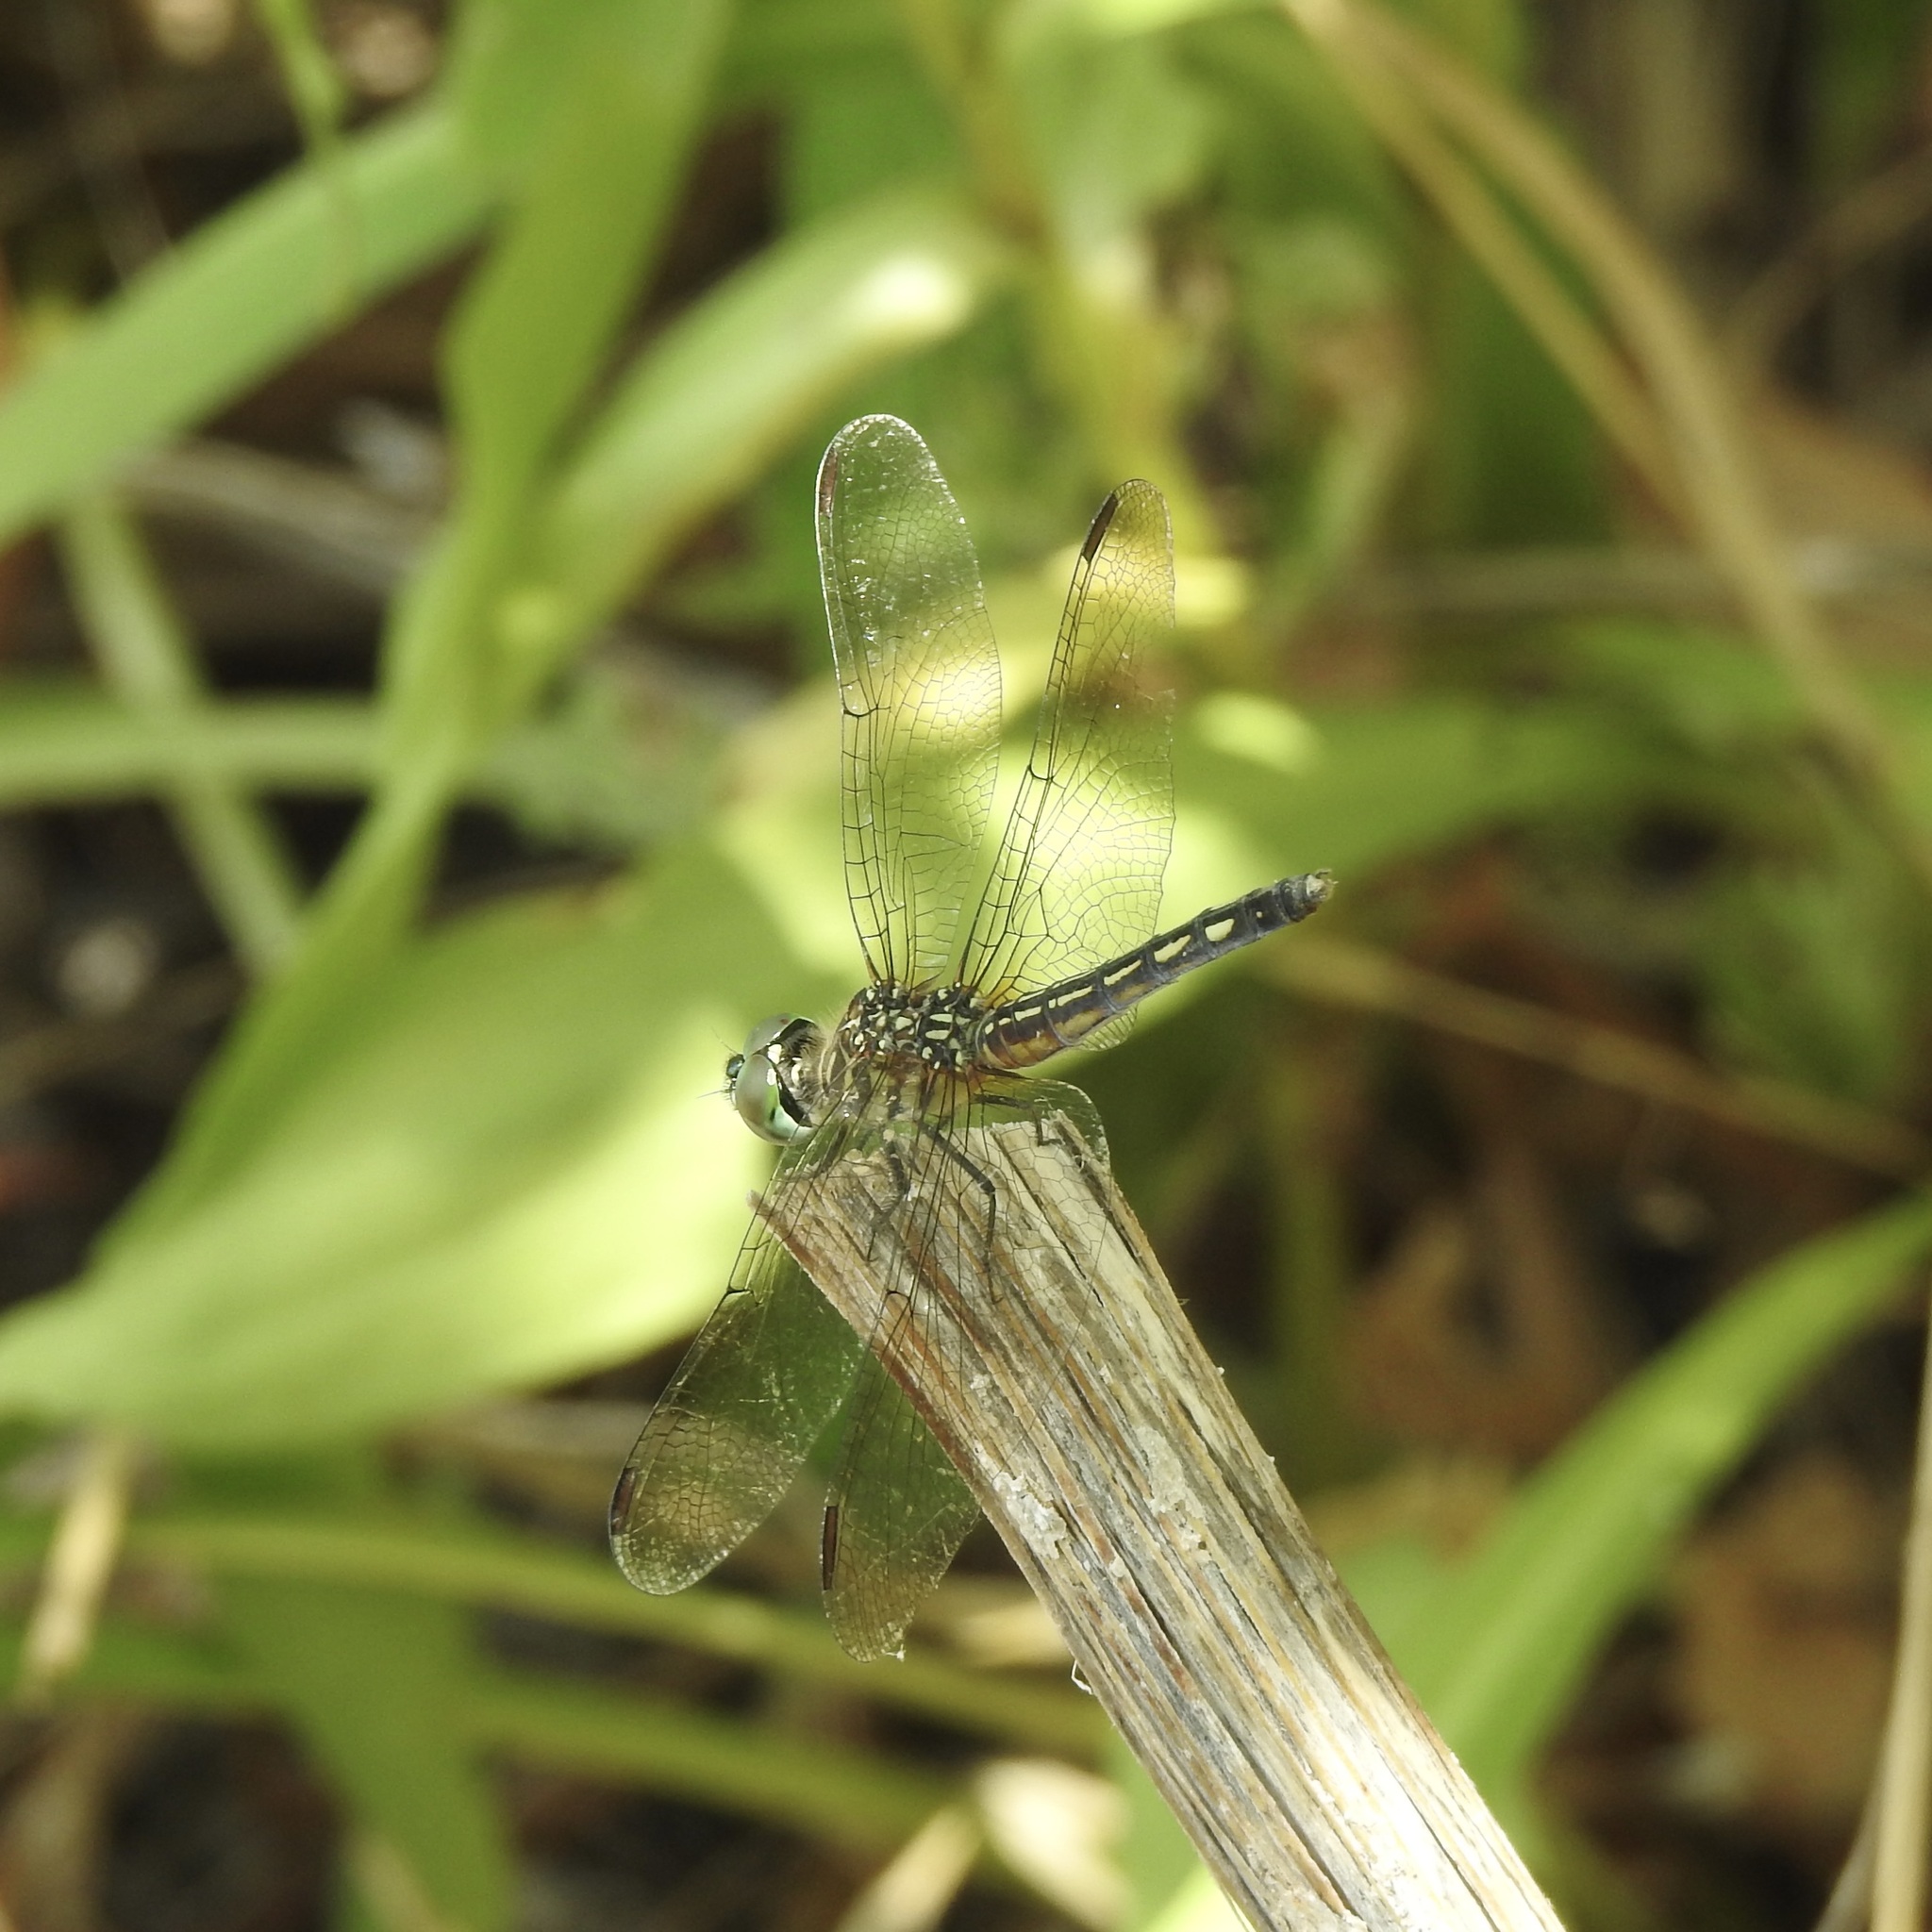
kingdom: Animalia
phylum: Arthropoda
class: Insecta
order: Odonata
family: Libellulidae
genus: Pachydiplax
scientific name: Pachydiplax longipennis
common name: Blue dasher
